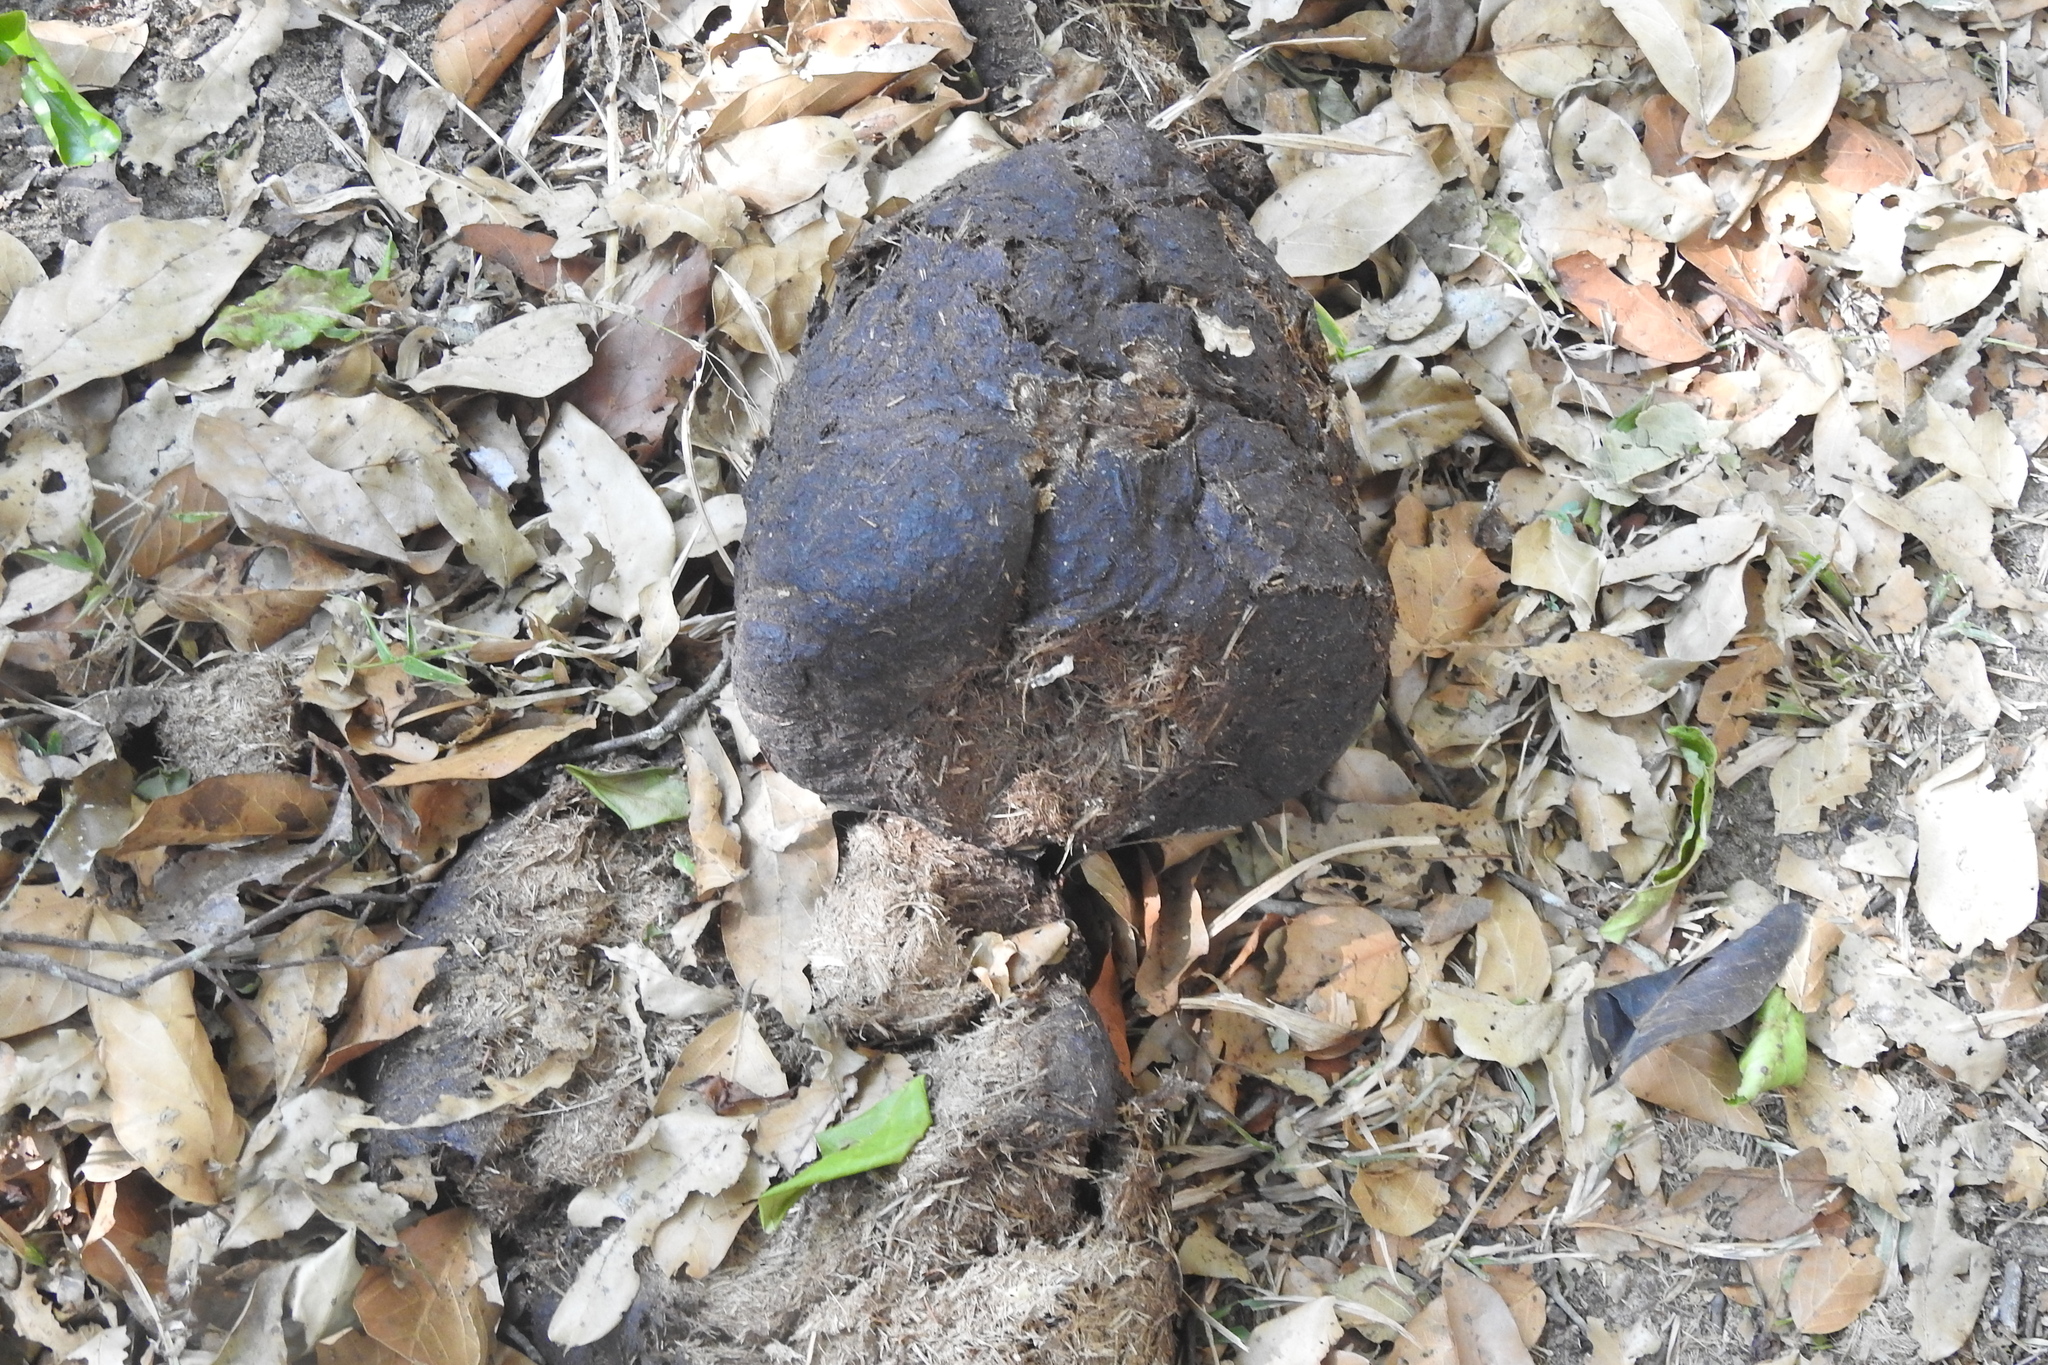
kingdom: Animalia
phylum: Chordata
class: Mammalia
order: Proboscidea
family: Elephantidae
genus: Elephas
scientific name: Elephas maximus
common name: Asian elephant
